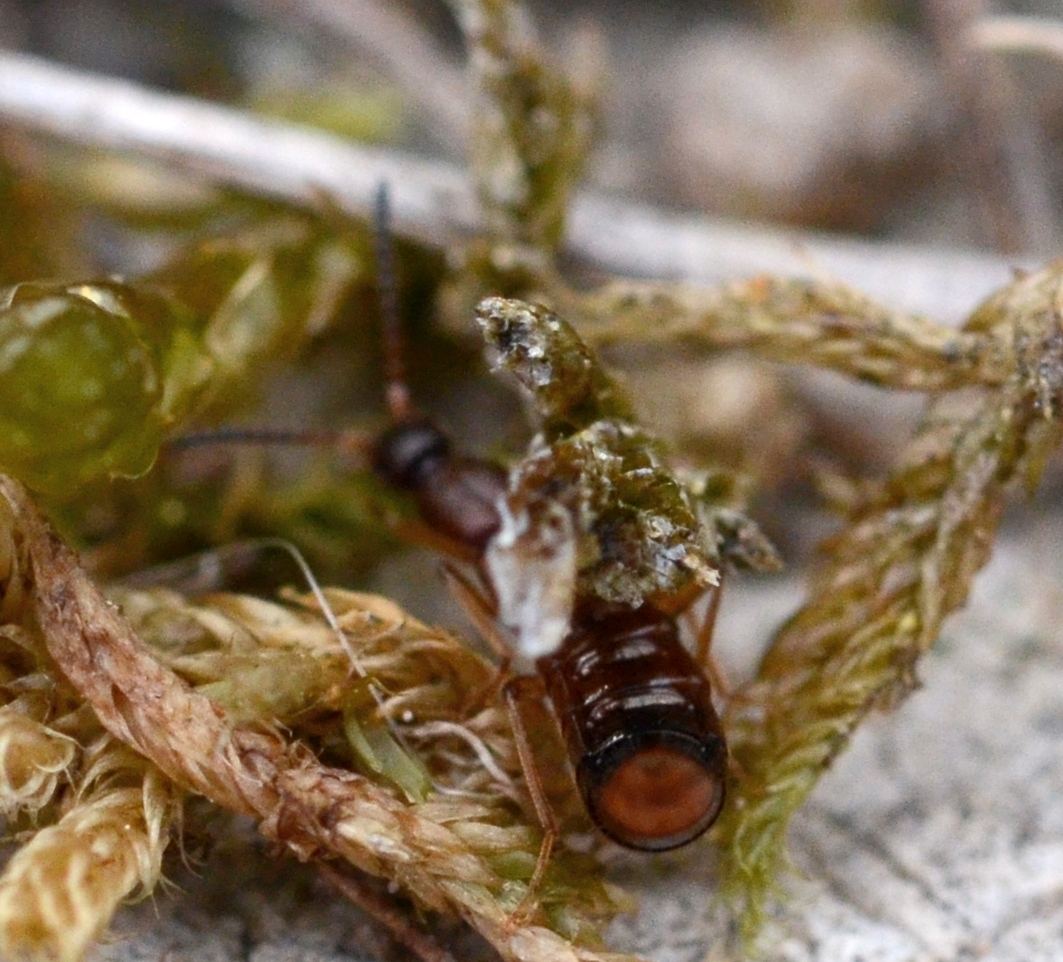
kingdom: Animalia
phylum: Arthropoda
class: Insecta
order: Coleoptera
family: Staphylinidae
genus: Drusilla
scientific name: Drusilla canaliculata
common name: Rove beetle
